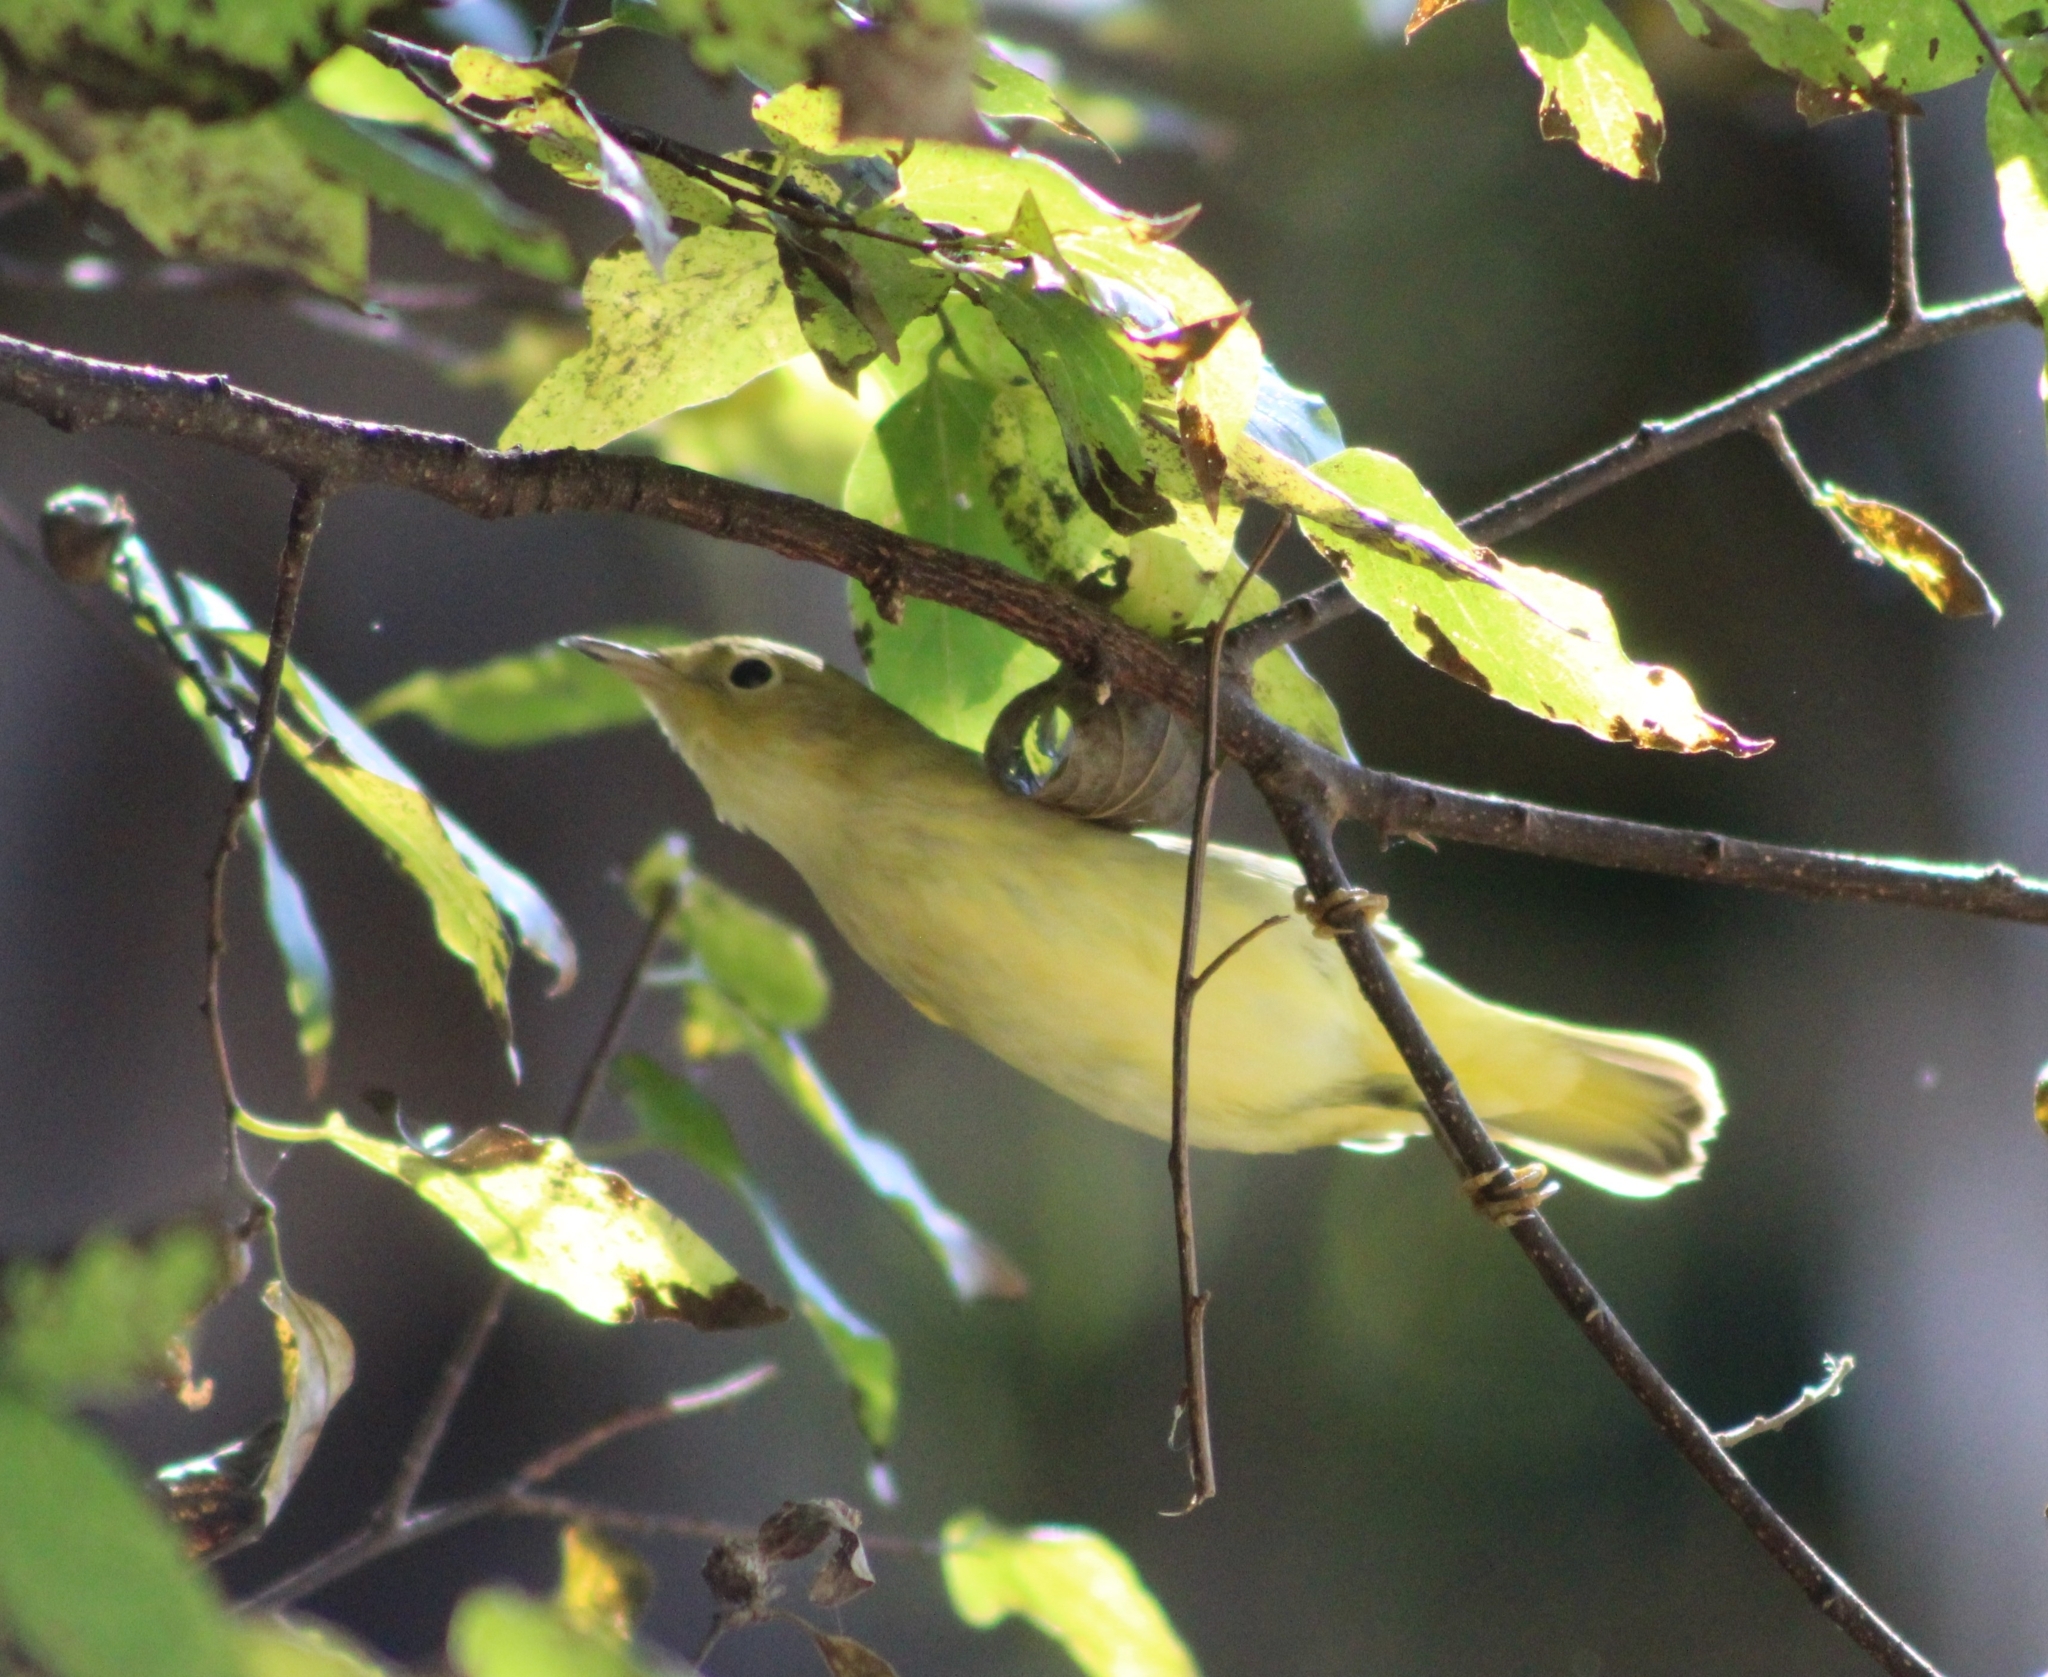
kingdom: Animalia
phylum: Chordata
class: Aves
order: Passeriformes
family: Parulidae
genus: Setophaga
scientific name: Setophaga petechia
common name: Yellow warbler
